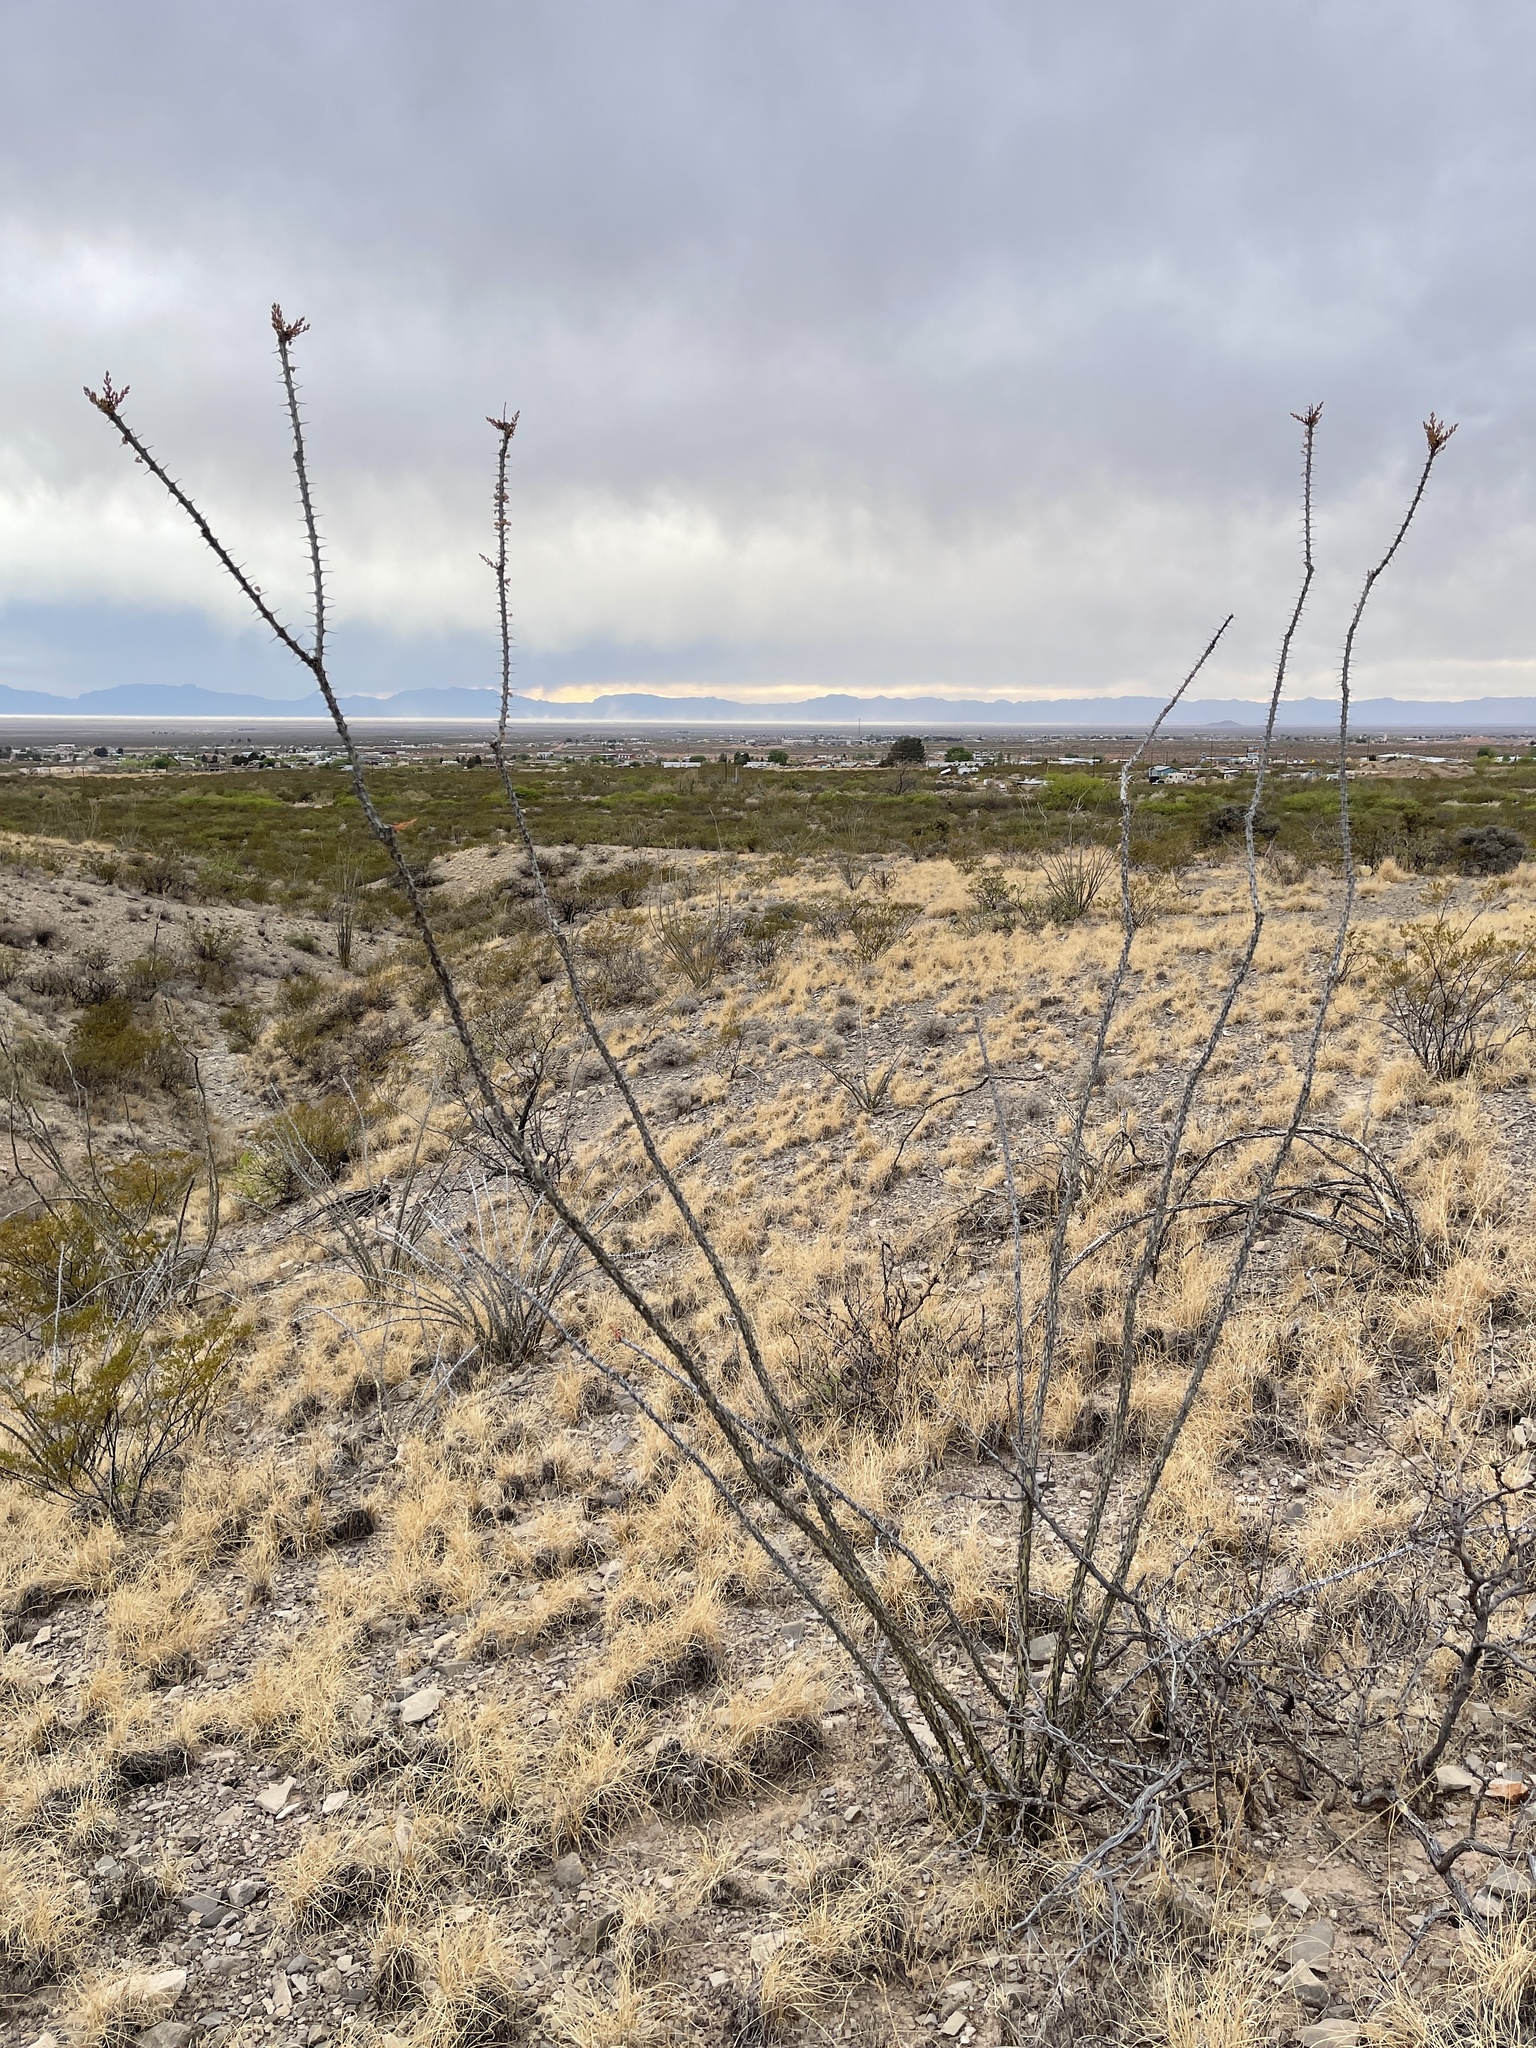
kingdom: Plantae
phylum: Tracheophyta
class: Magnoliopsida
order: Ericales
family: Fouquieriaceae
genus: Fouquieria
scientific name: Fouquieria splendens
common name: Vine-cactus
